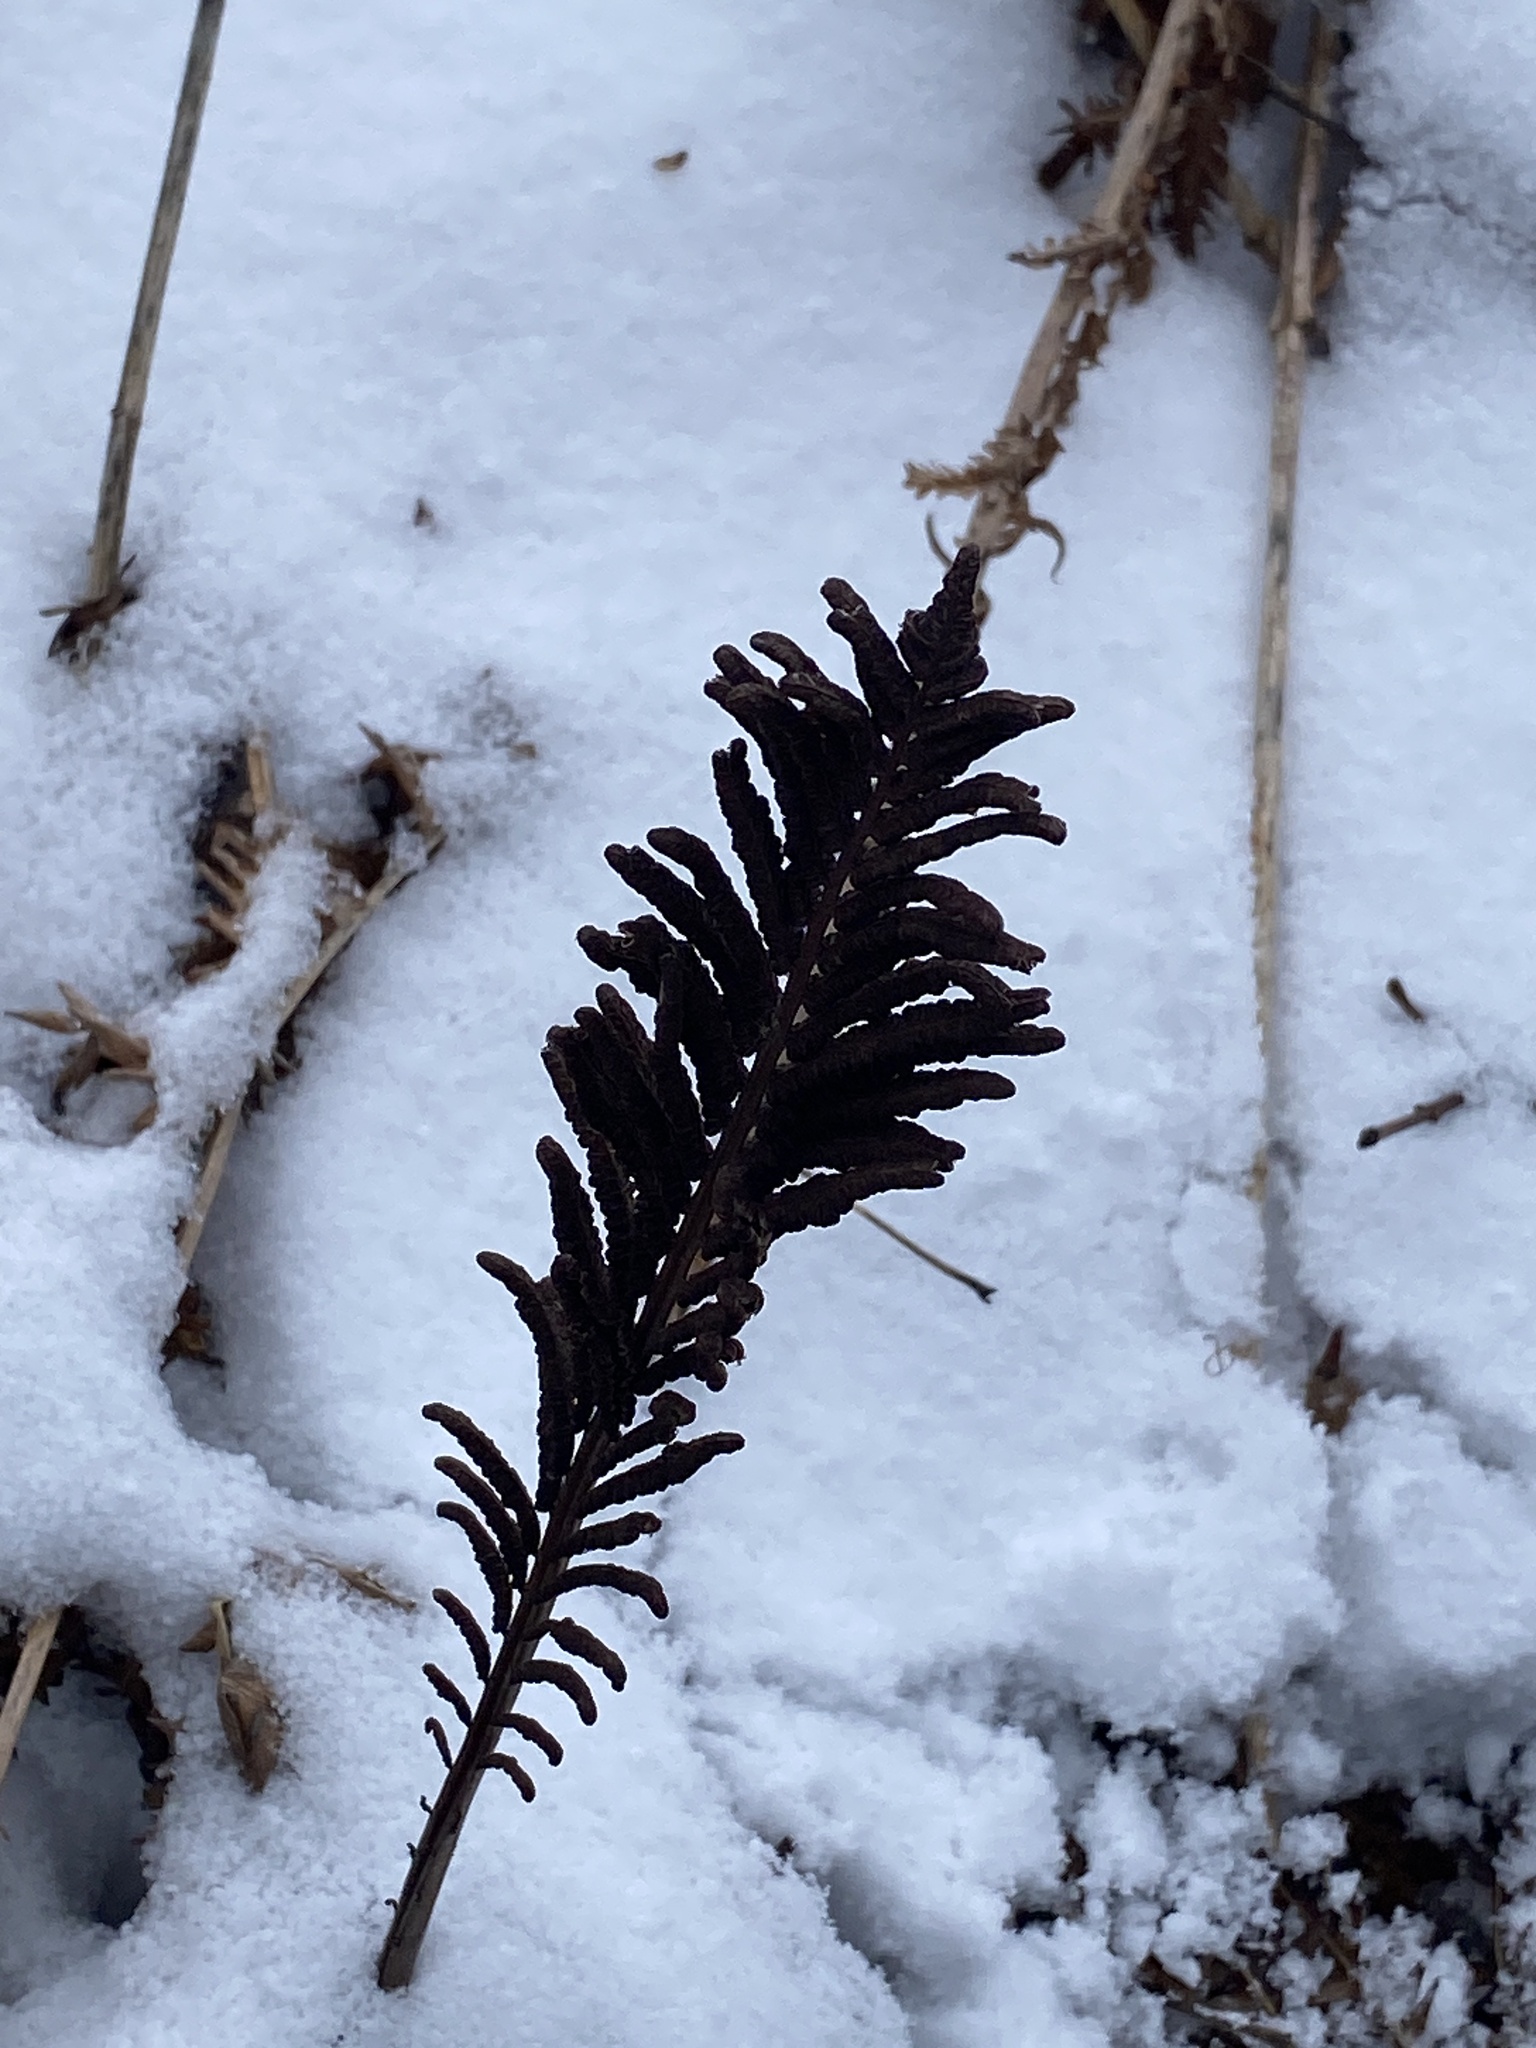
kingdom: Plantae
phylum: Tracheophyta
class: Polypodiopsida
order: Polypodiales
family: Onocleaceae
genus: Matteuccia
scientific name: Matteuccia struthiopteris
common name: Ostrich fern
